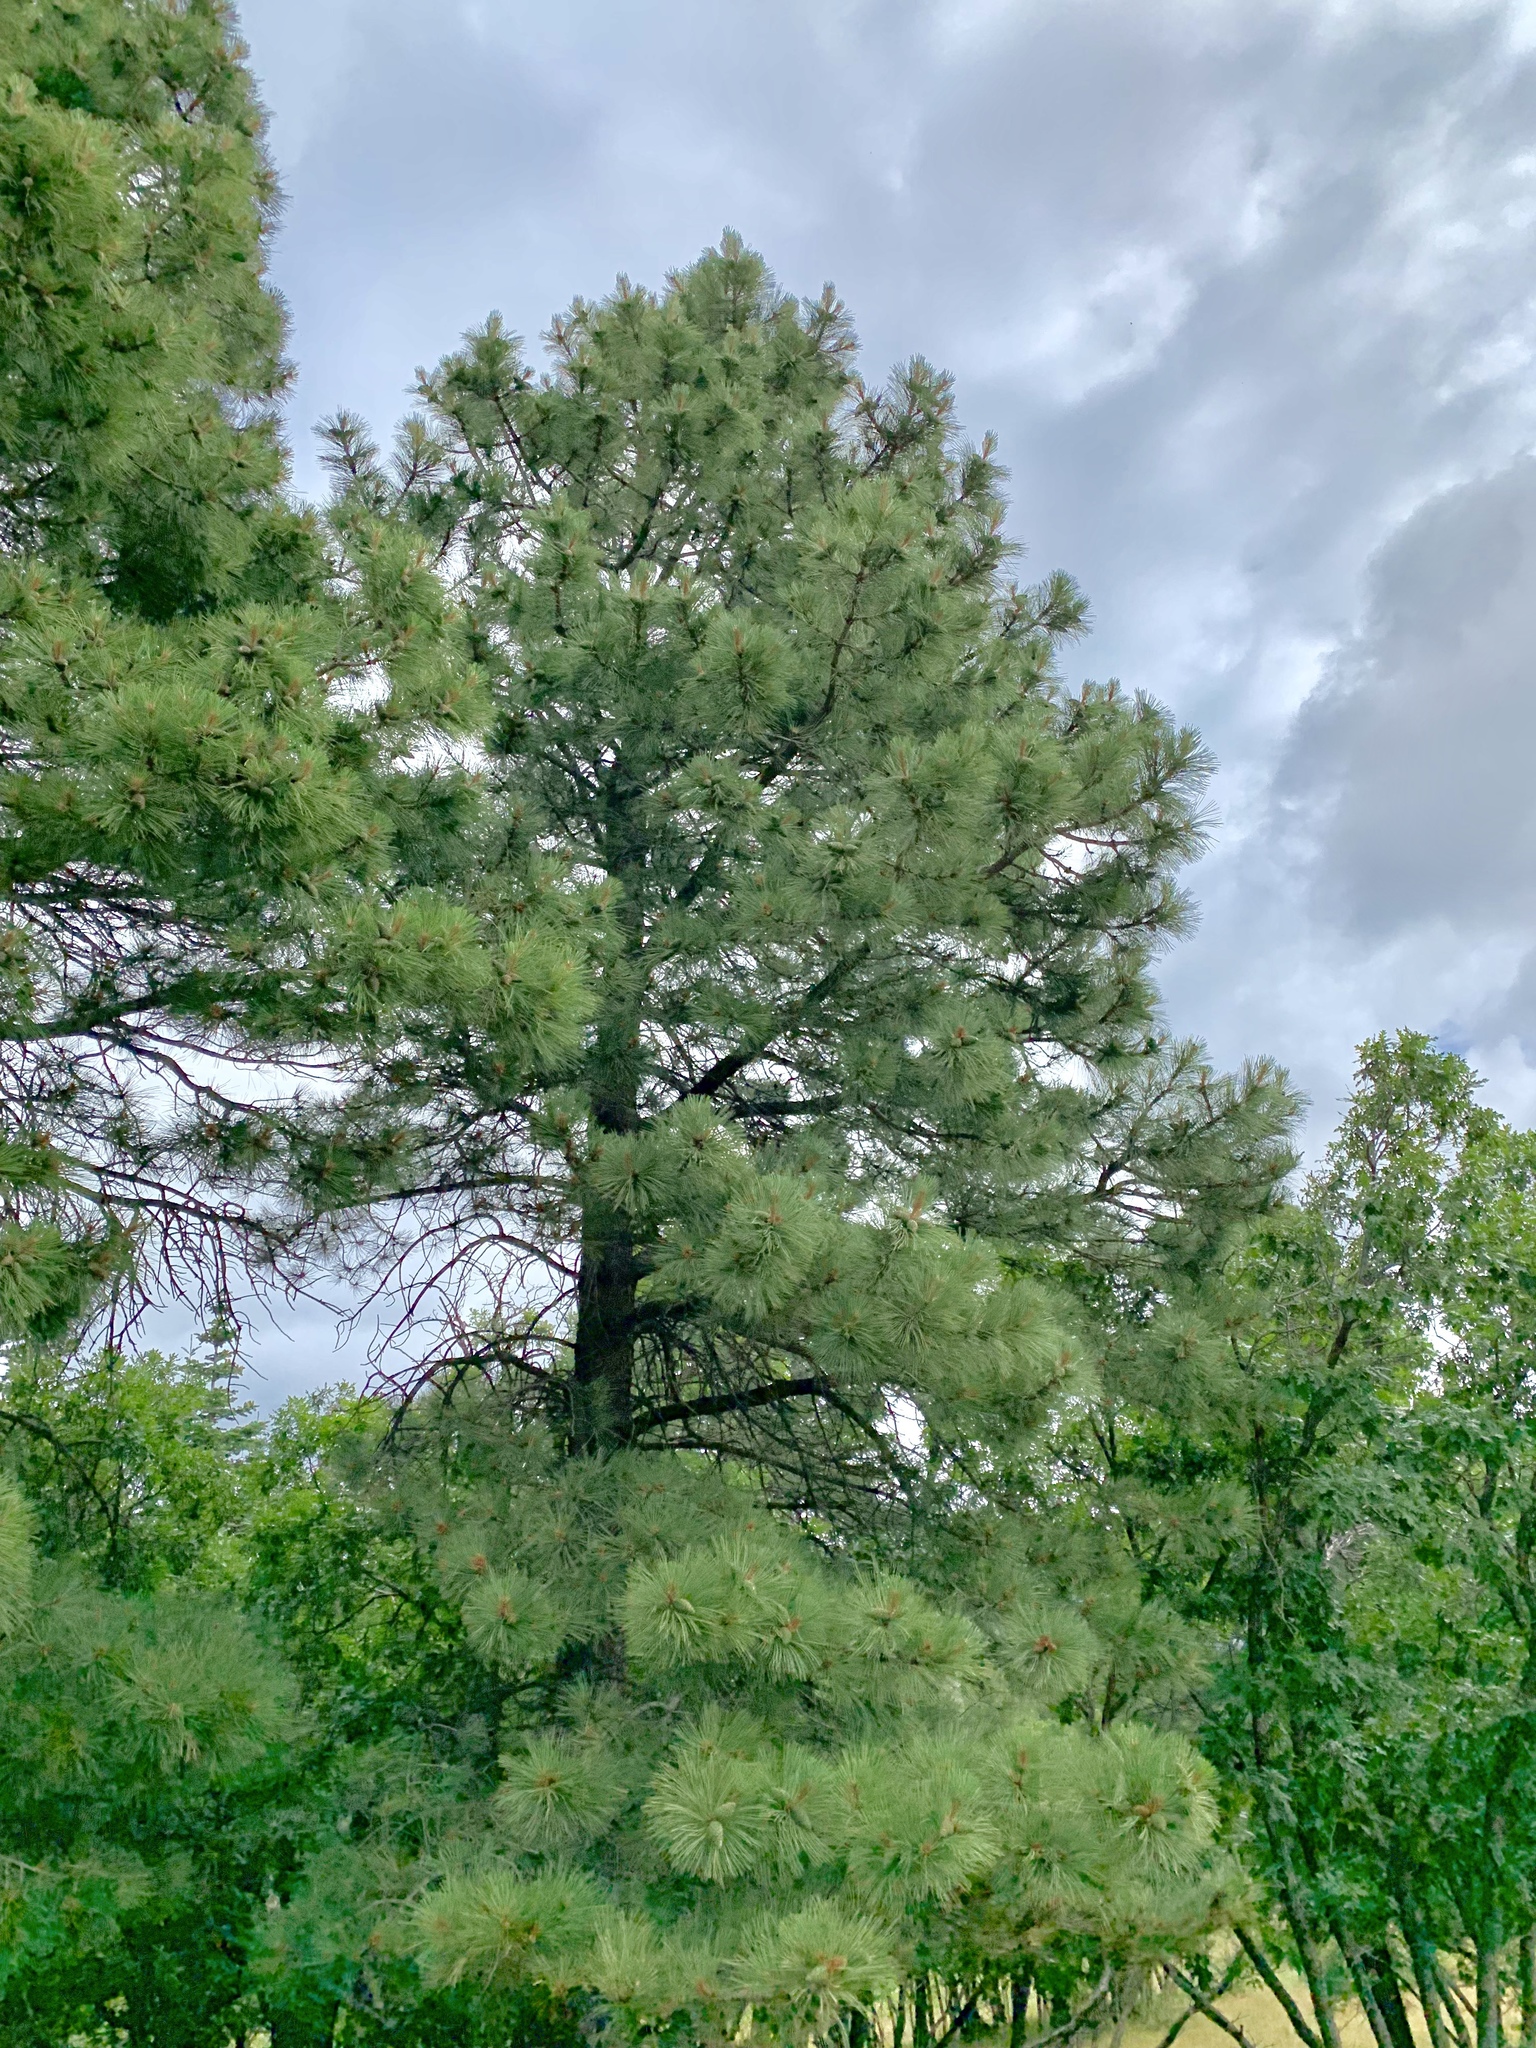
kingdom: Plantae
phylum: Tracheophyta
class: Pinopsida
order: Pinales
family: Pinaceae
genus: Pinus
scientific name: Pinus ponderosa
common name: Western yellow-pine
